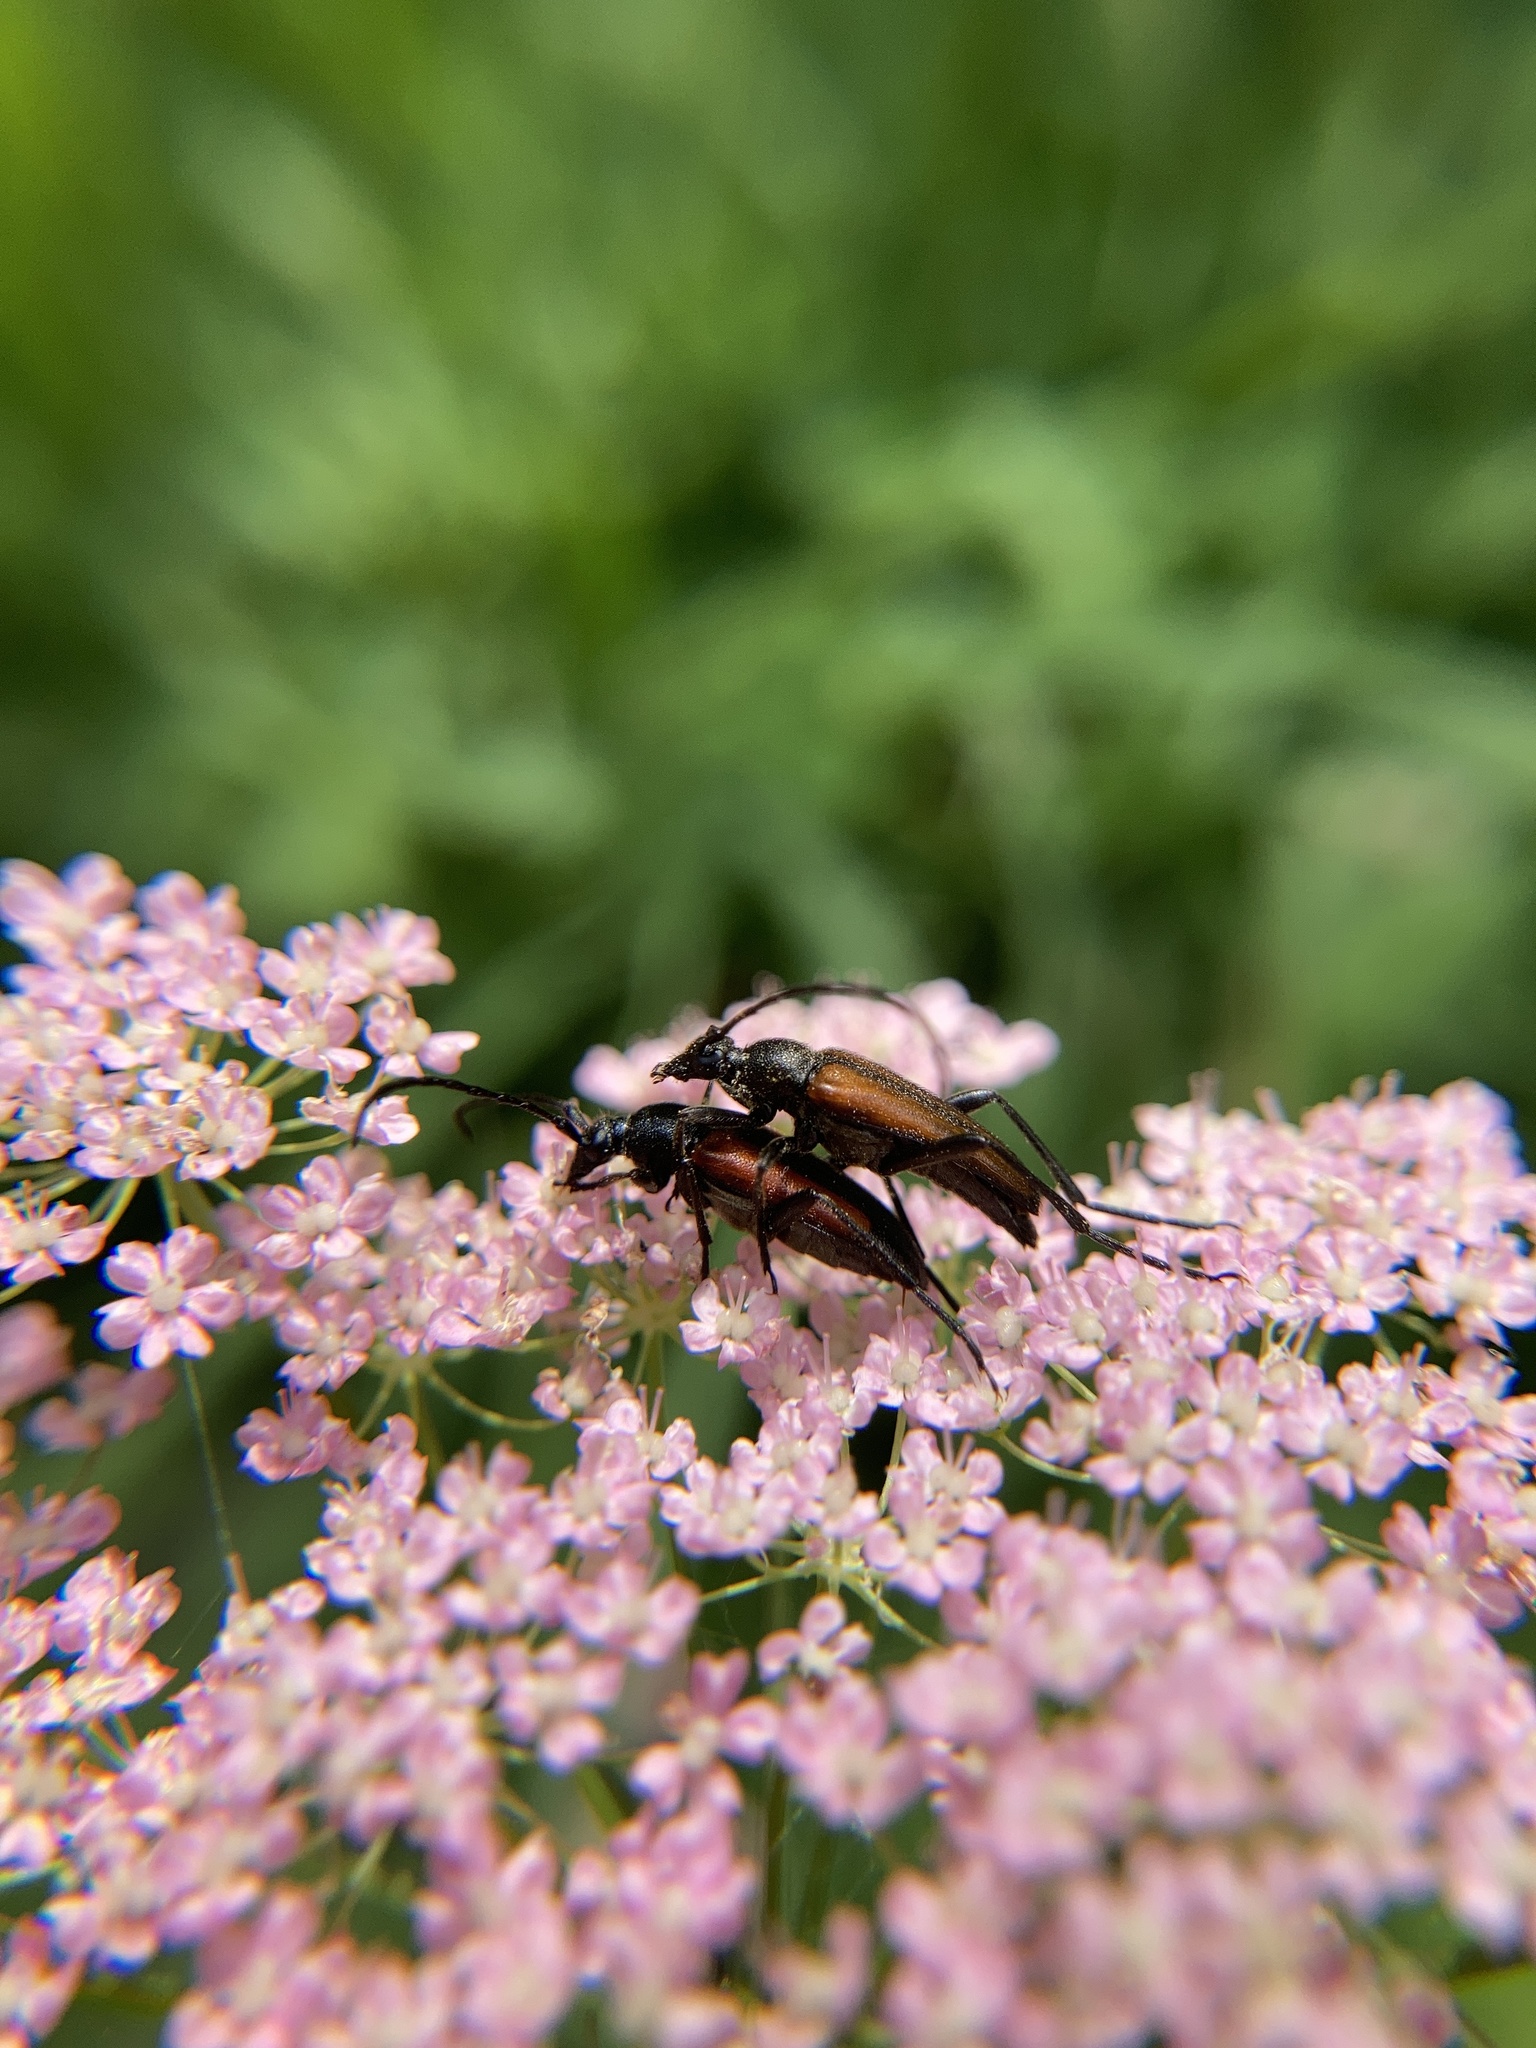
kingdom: Animalia
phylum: Arthropoda
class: Insecta
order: Coleoptera
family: Cerambycidae
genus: Stenurella
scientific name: Stenurella melanura
